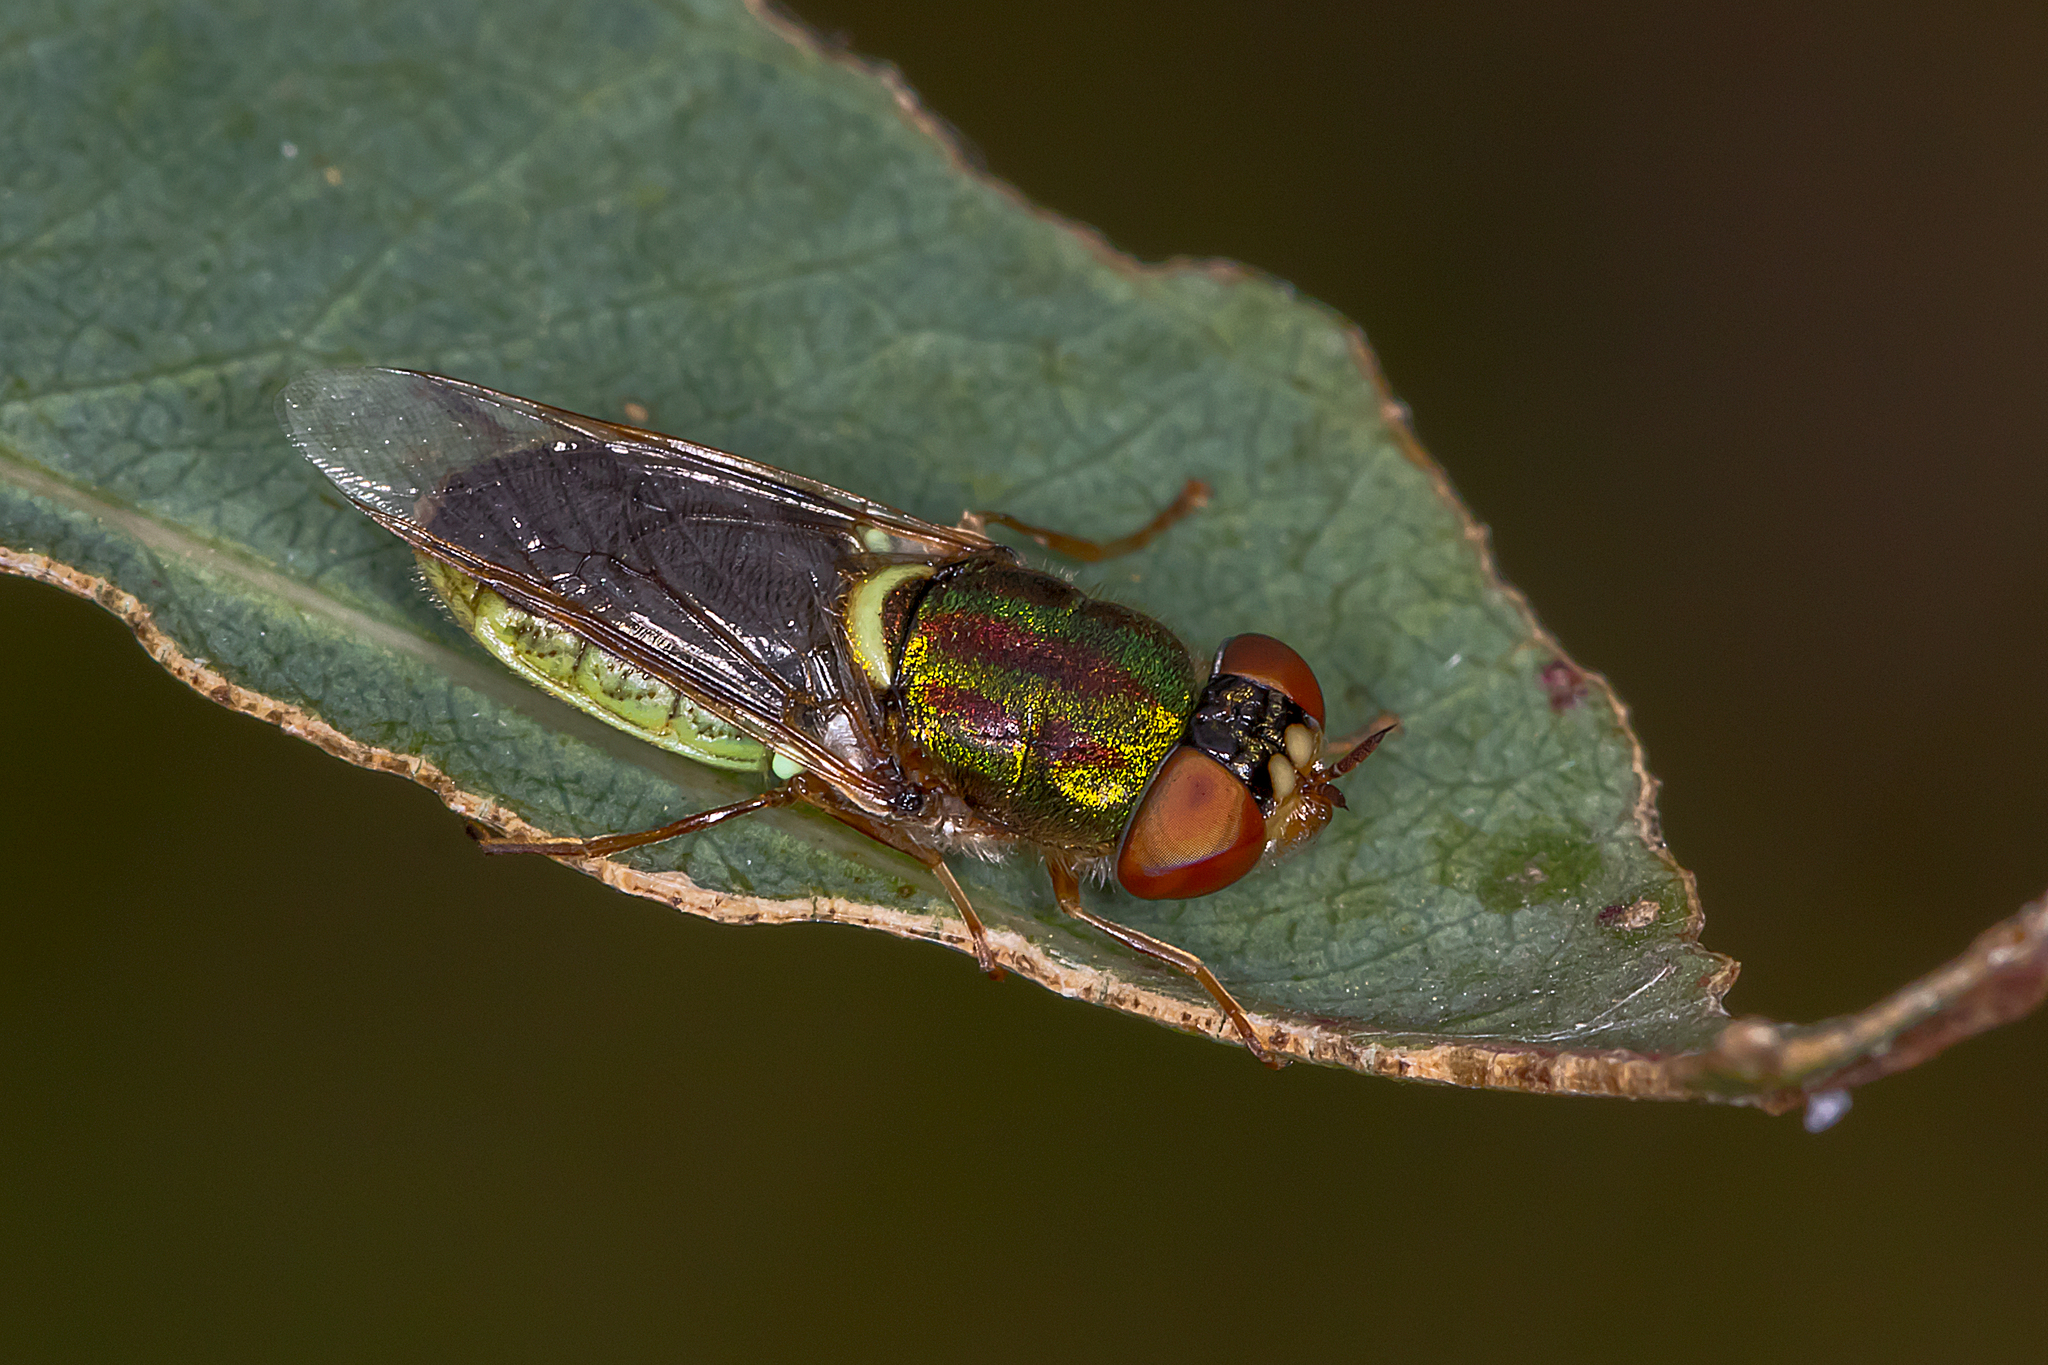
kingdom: Animalia
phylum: Arthropoda
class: Insecta
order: Diptera
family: Stratiomyidae
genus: Odontomyia
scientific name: Odontomyia decipiens
